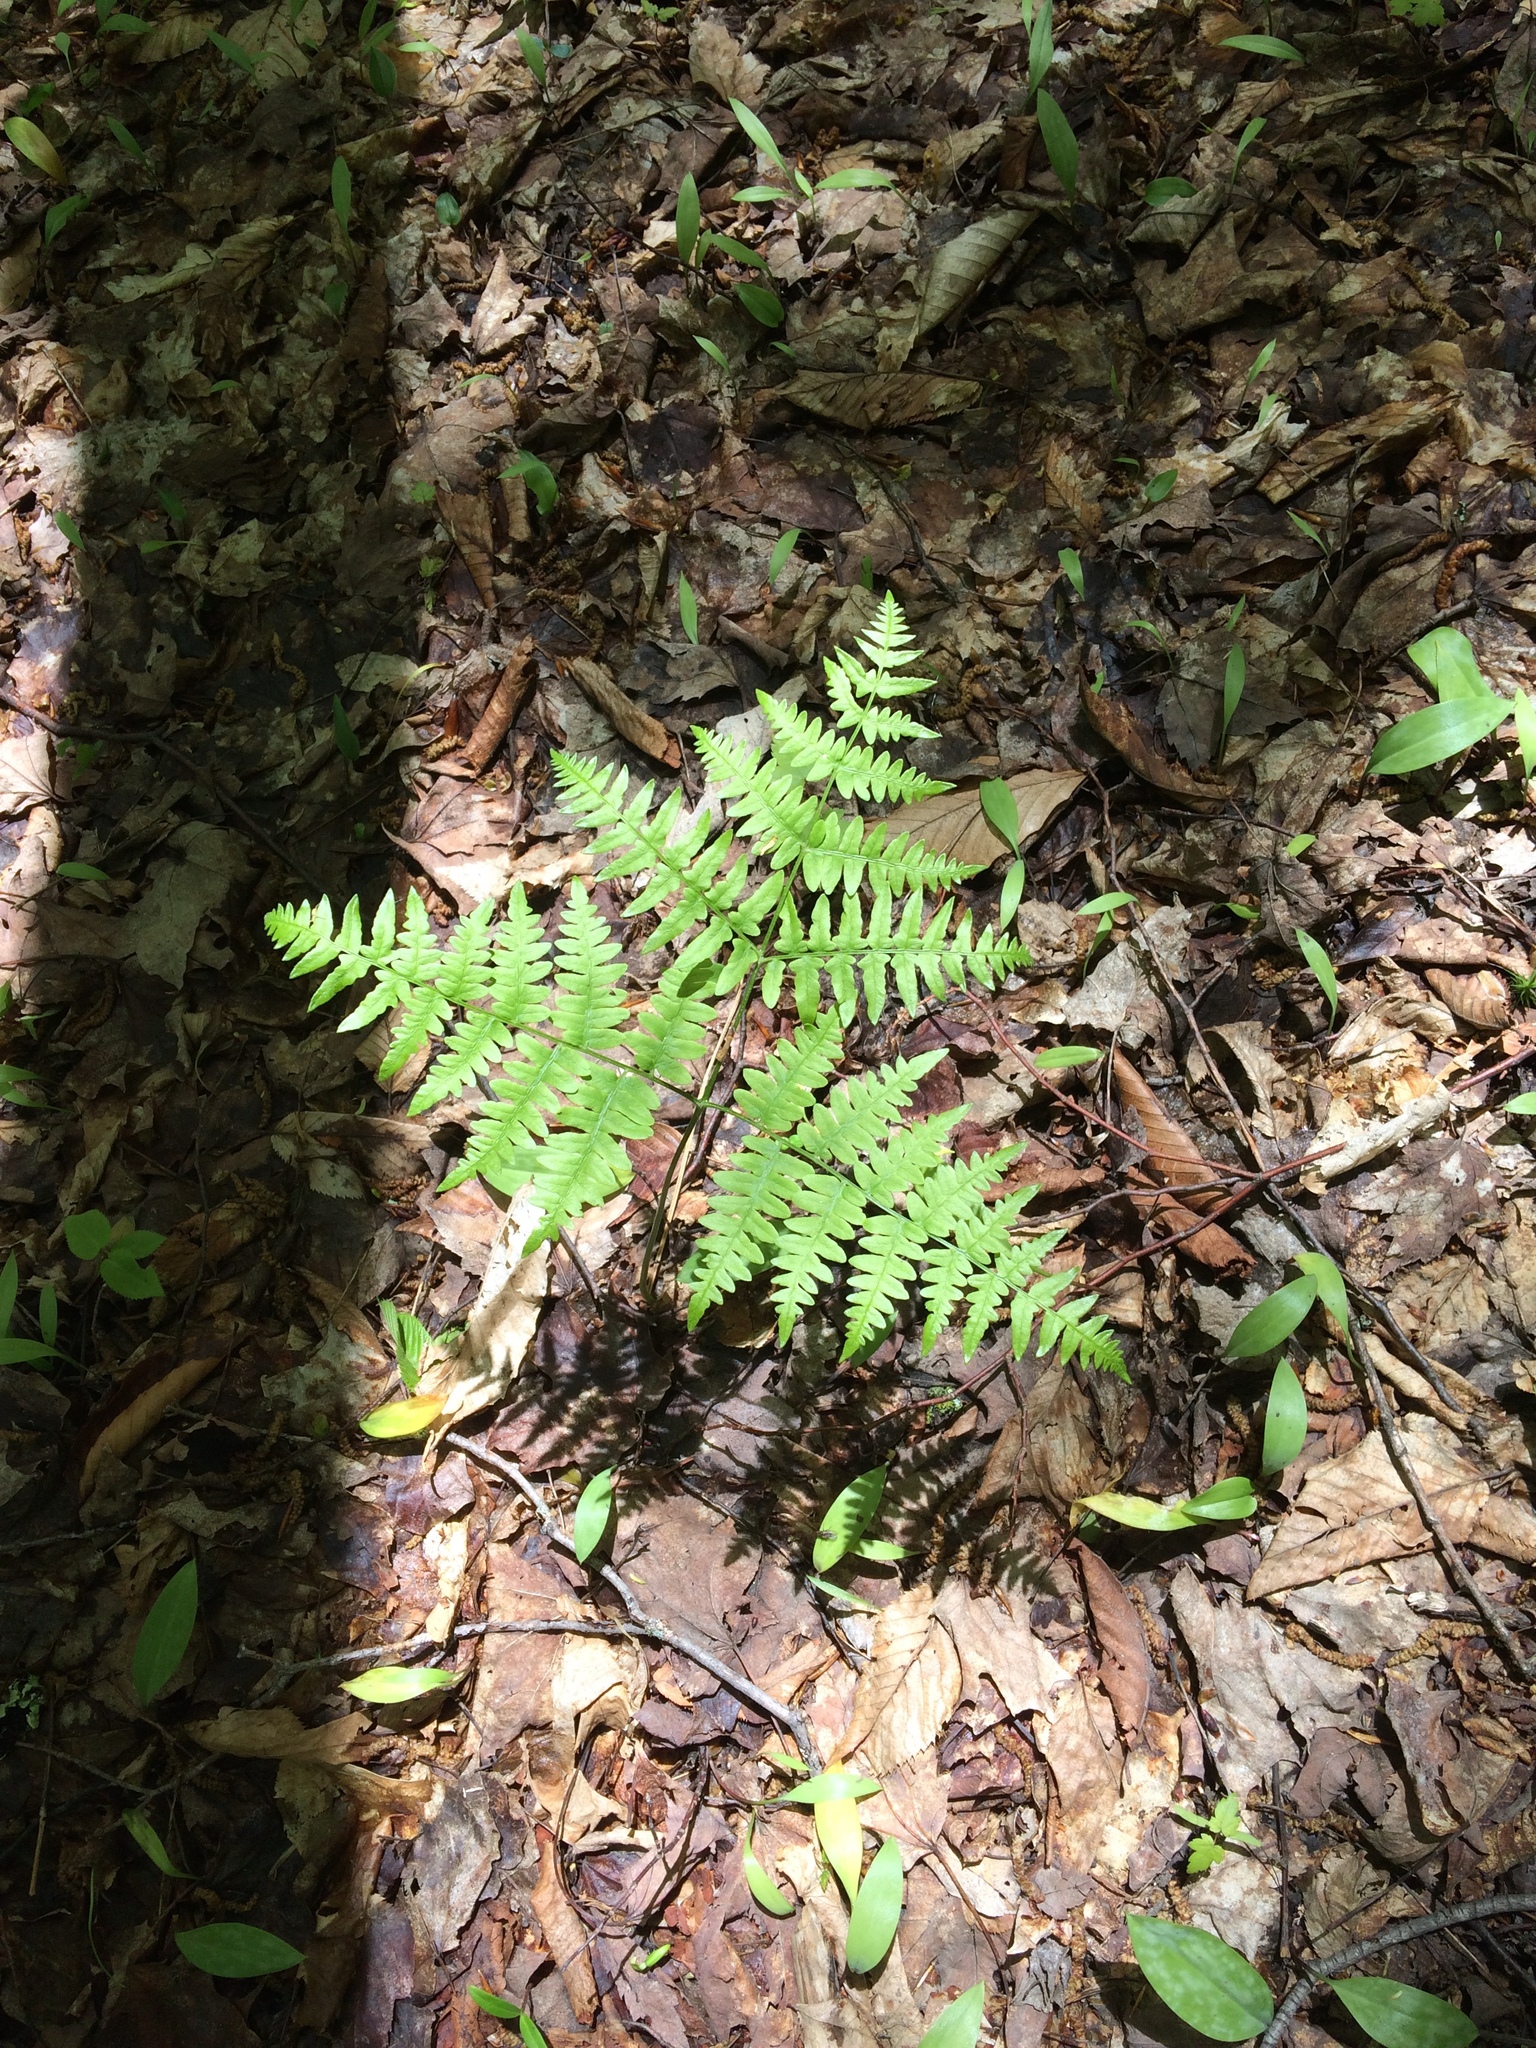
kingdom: Plantae
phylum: Tracheophyta
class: Polypodiopsida
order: Polypodiales
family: Dennstaedtiaceae
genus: Pteridium
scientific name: Pteridium aquilinum
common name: Bracken
